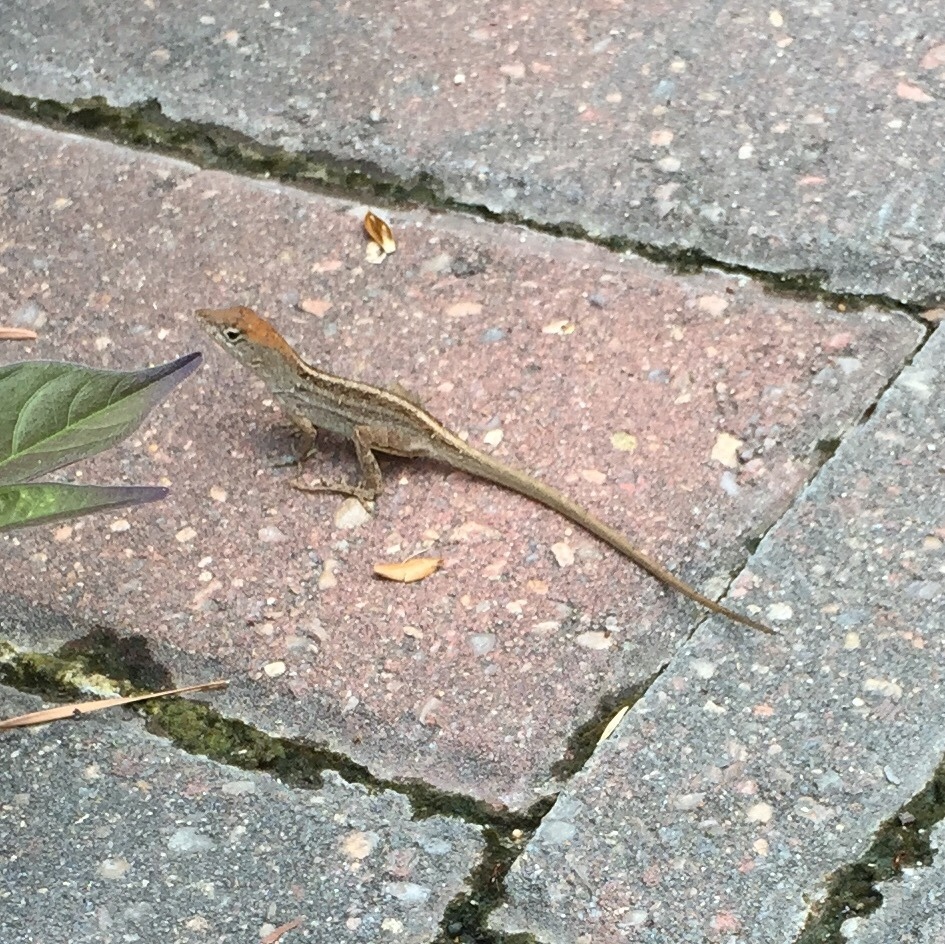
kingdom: Animalia
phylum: Chordata
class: Squamata
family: Dactyloidae
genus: Anolis
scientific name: Anolis sagrei
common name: Brown anole
